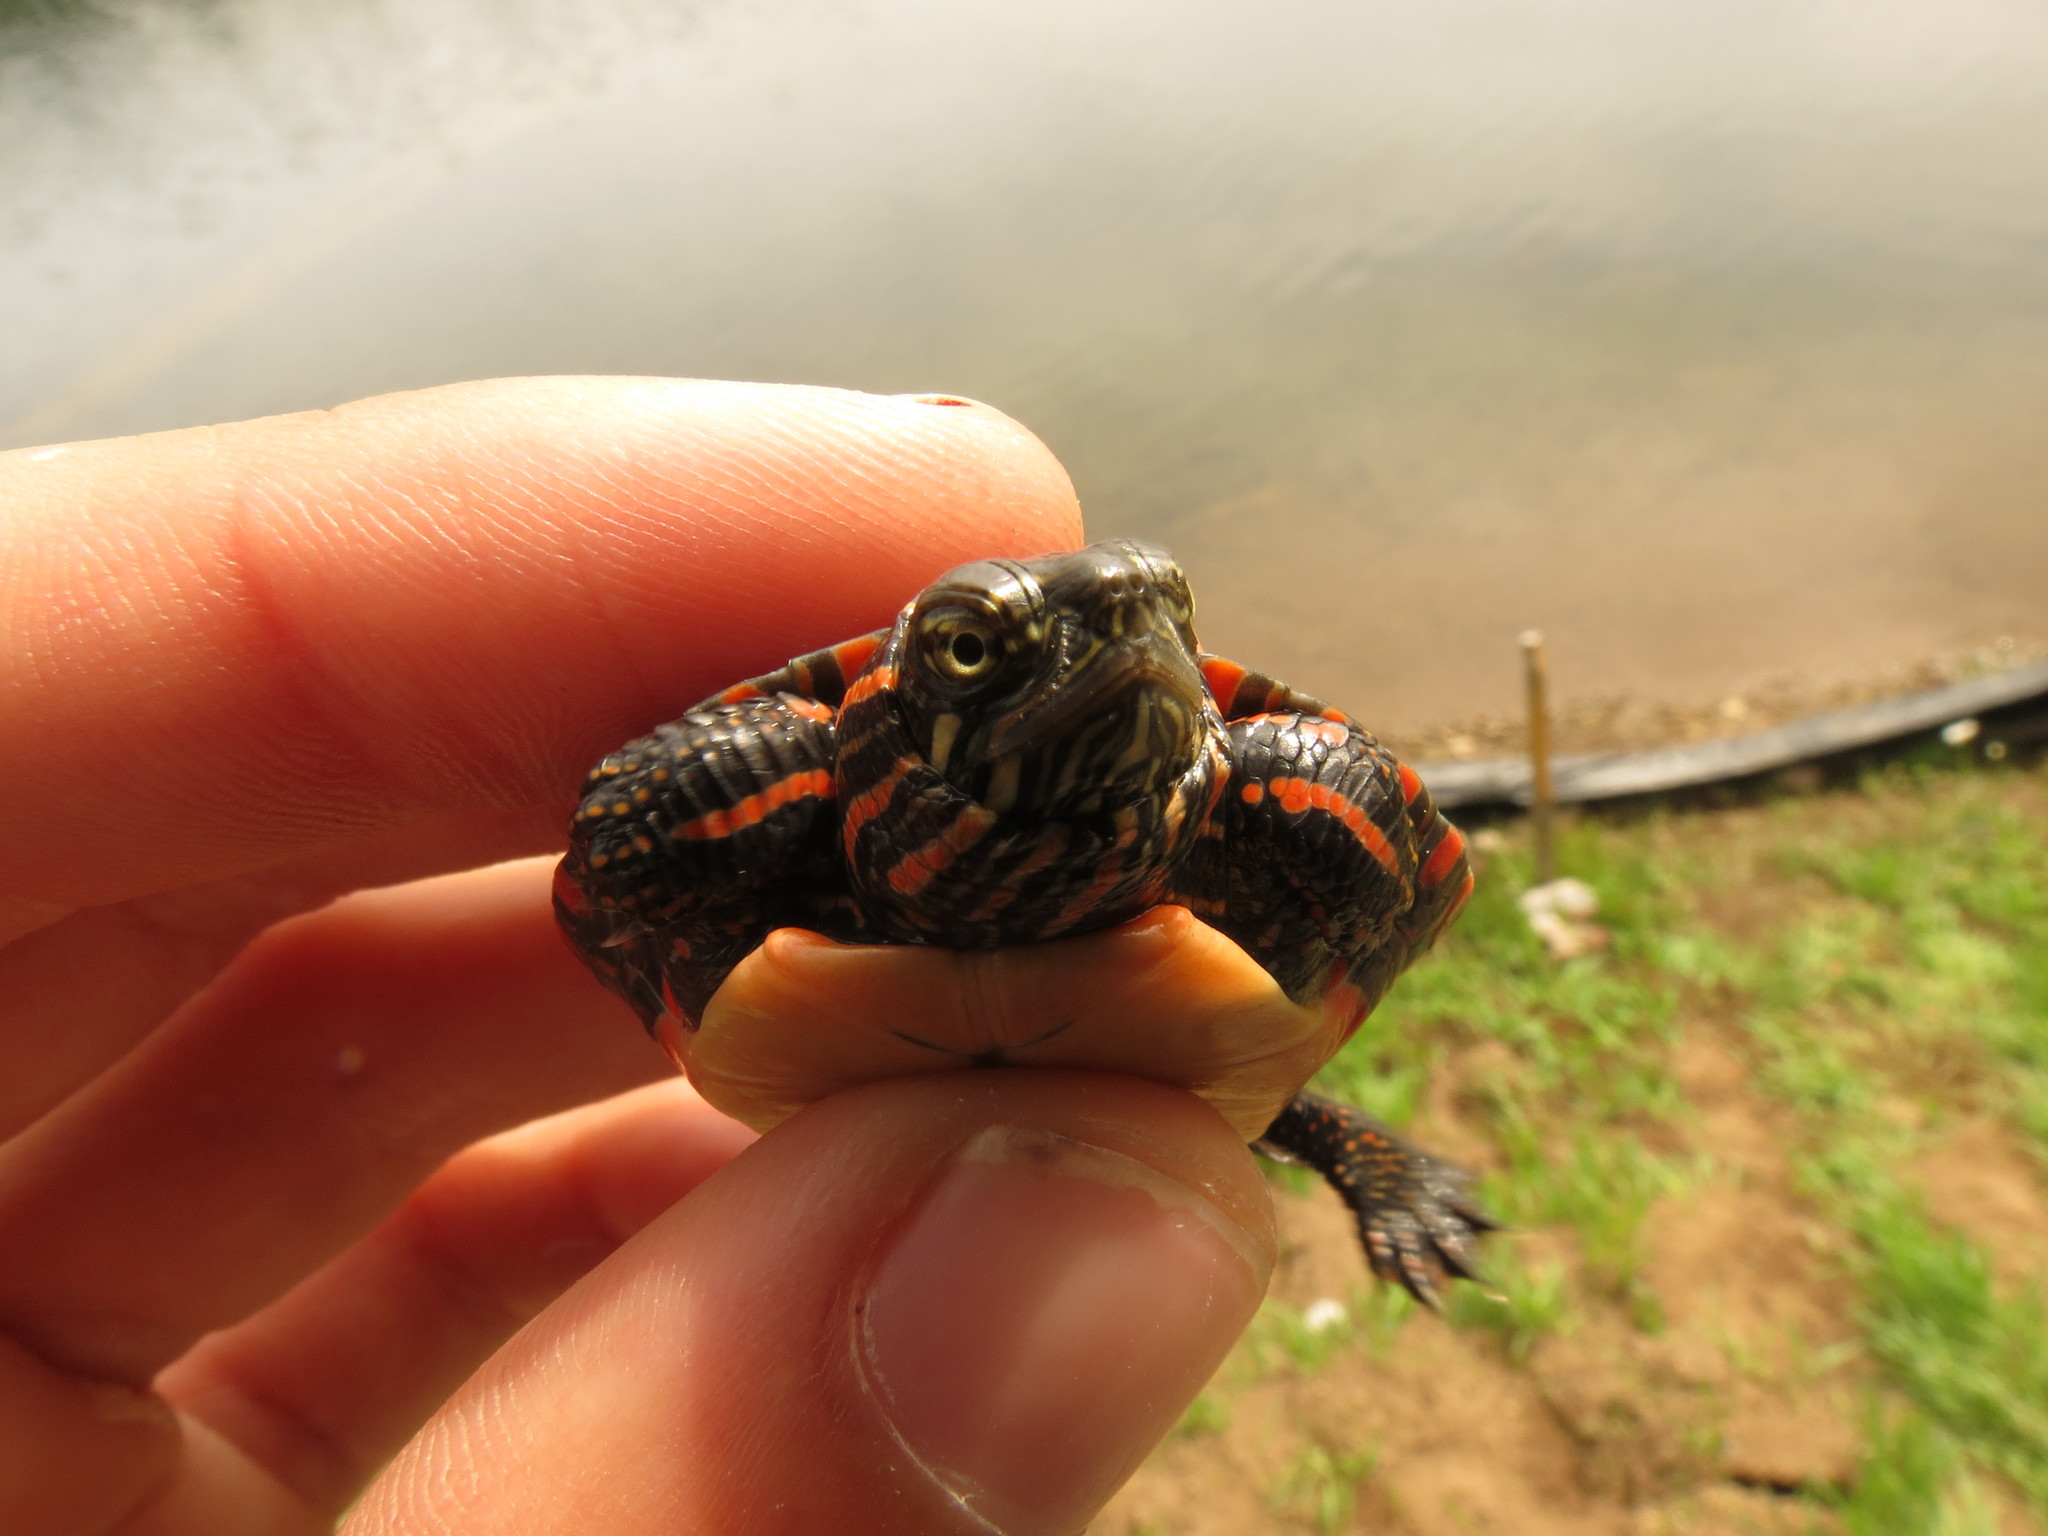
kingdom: Animalia
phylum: Chordata
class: Testudines
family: Emydidae
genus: Chrysemys
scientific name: Chrysemys picta
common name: Painted turtle
